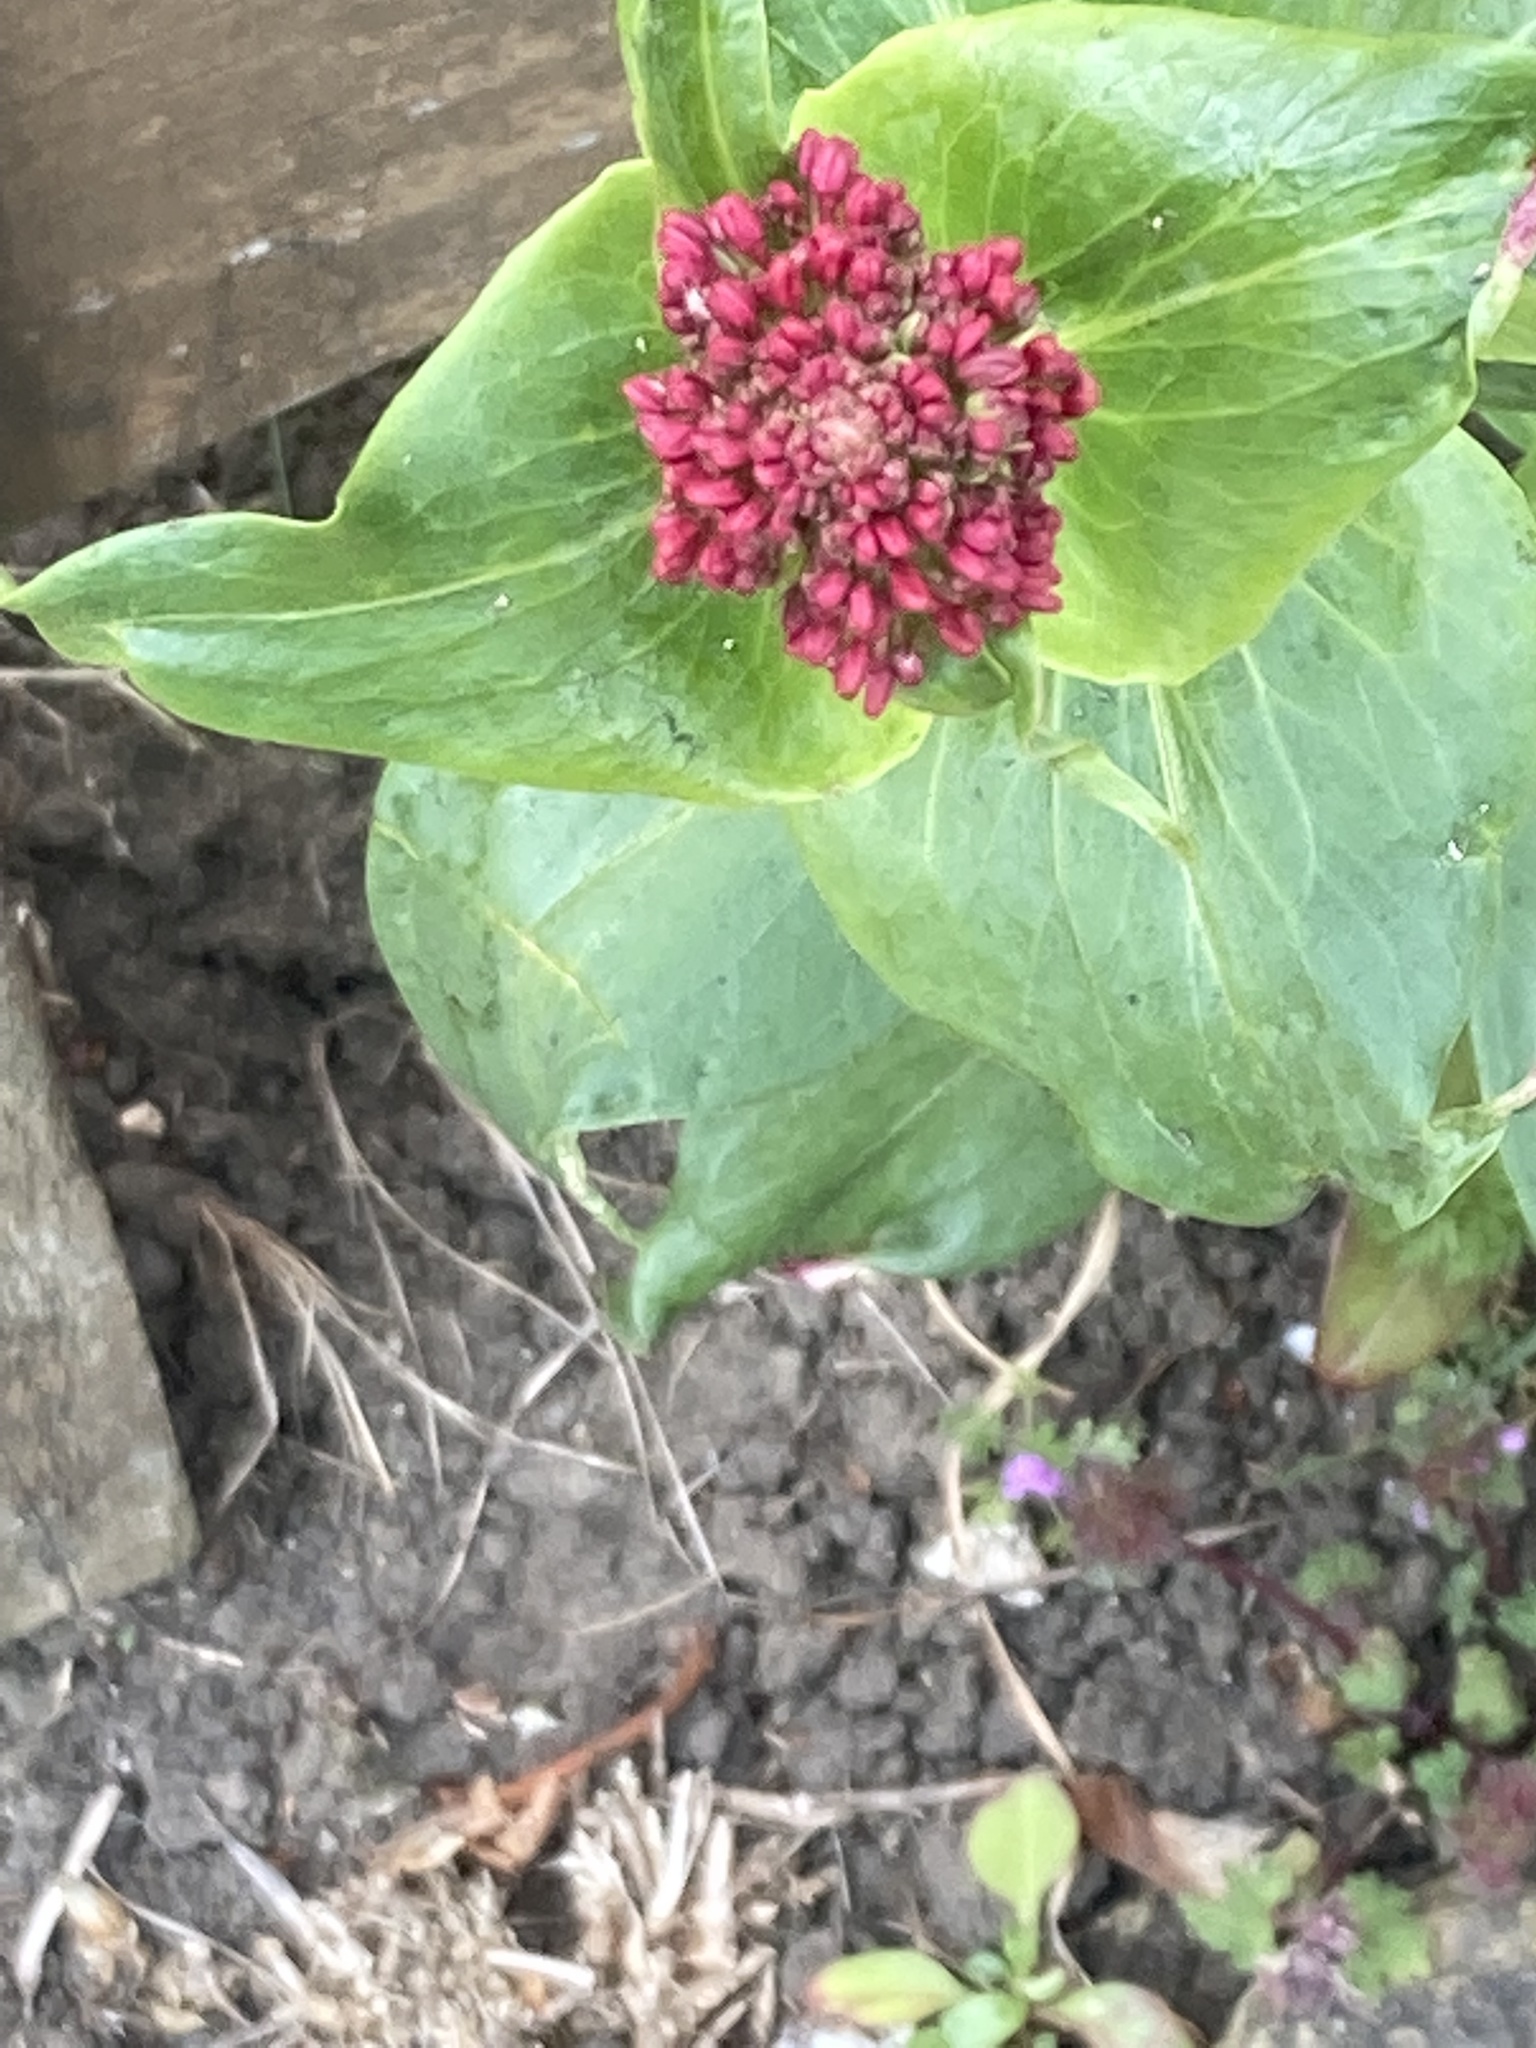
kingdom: Plantae
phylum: Tracheophyta
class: Magnoliopsida
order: Dipsacales
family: Caprifoliaceae
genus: Centranthus
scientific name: Centranthus ruber
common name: Red valerian
